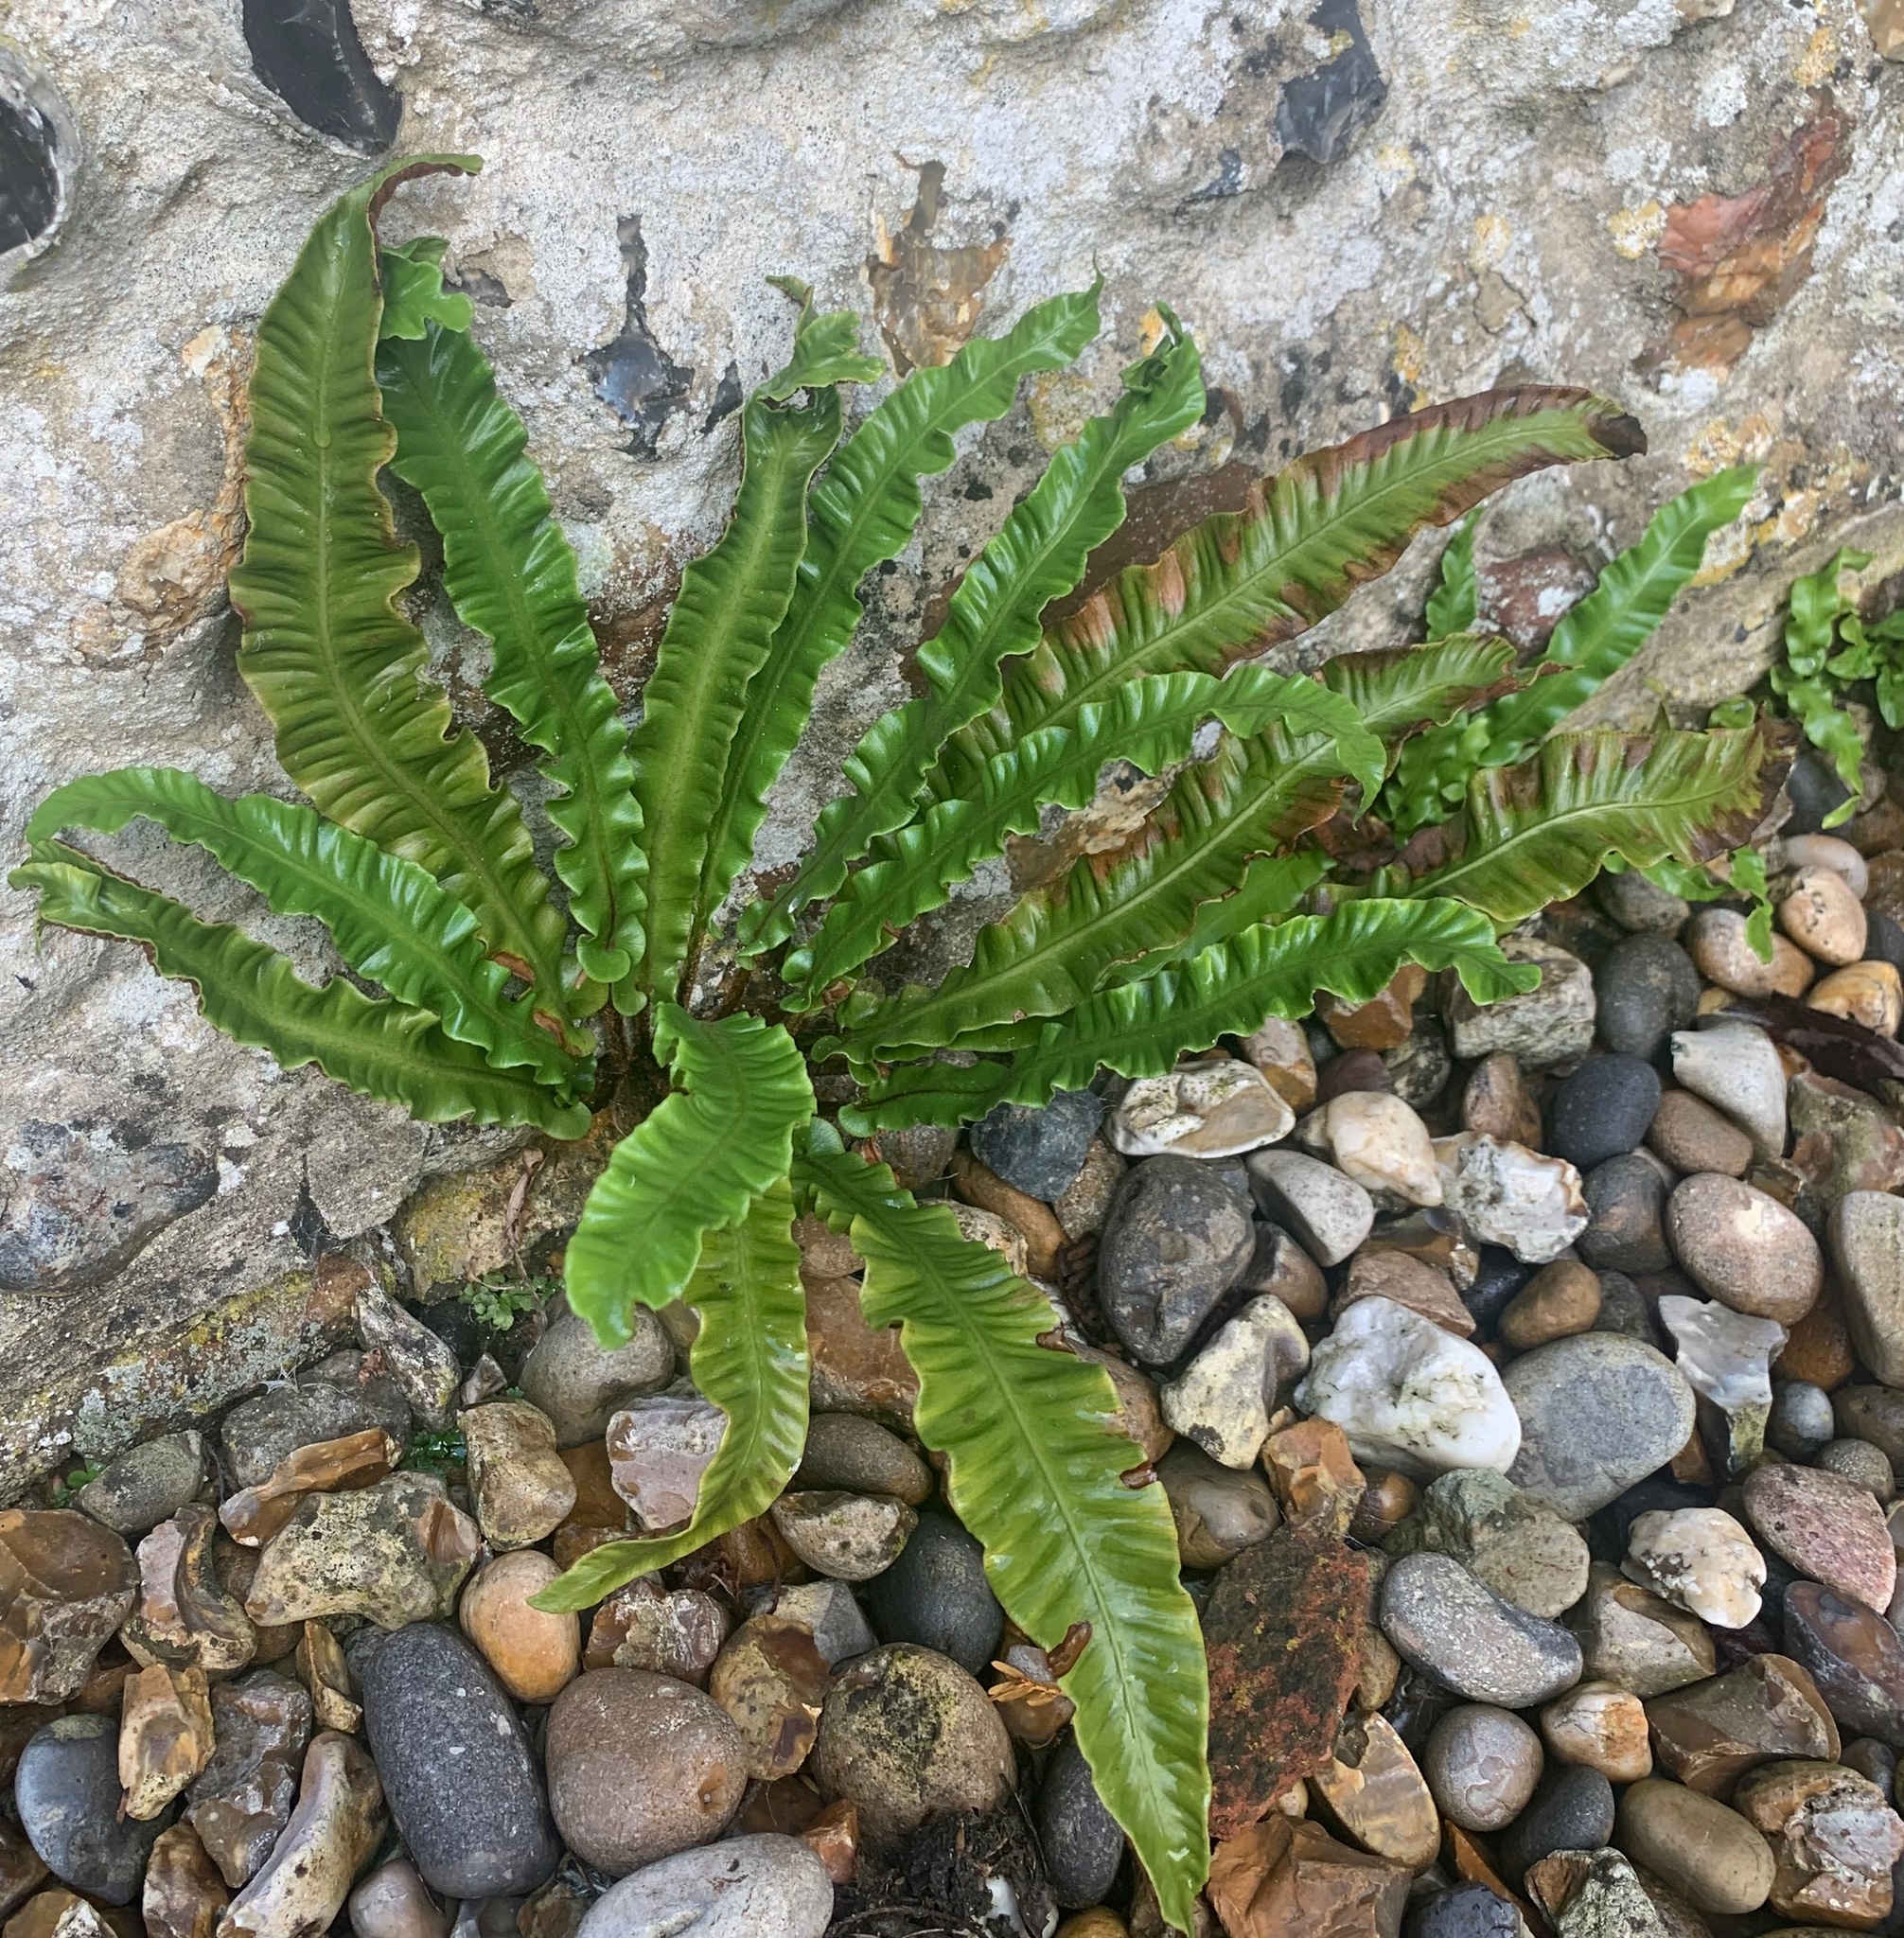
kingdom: Plantae
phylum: Tracheophyta
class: Polypodiopsida
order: Polypodiales
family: Aspleniaceae
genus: Asplenium
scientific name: Asplenium scolopendrium
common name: Hart's-tongue fern
